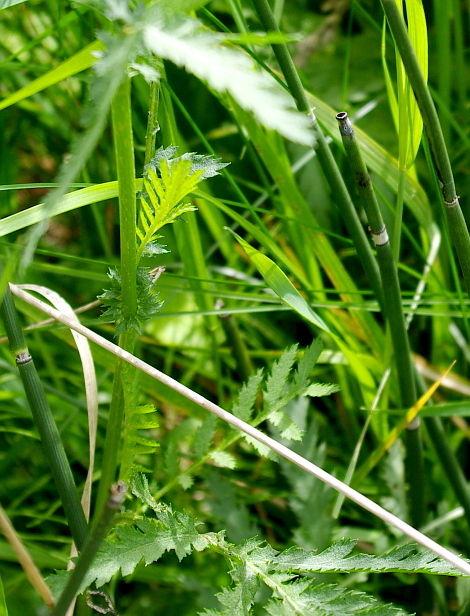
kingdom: Plantae
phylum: Tracheophyta
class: Magnoliopsida
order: Asterales
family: Asteraceae
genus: Tanacetum
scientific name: Tanacetum vulgare
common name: Common tansy
